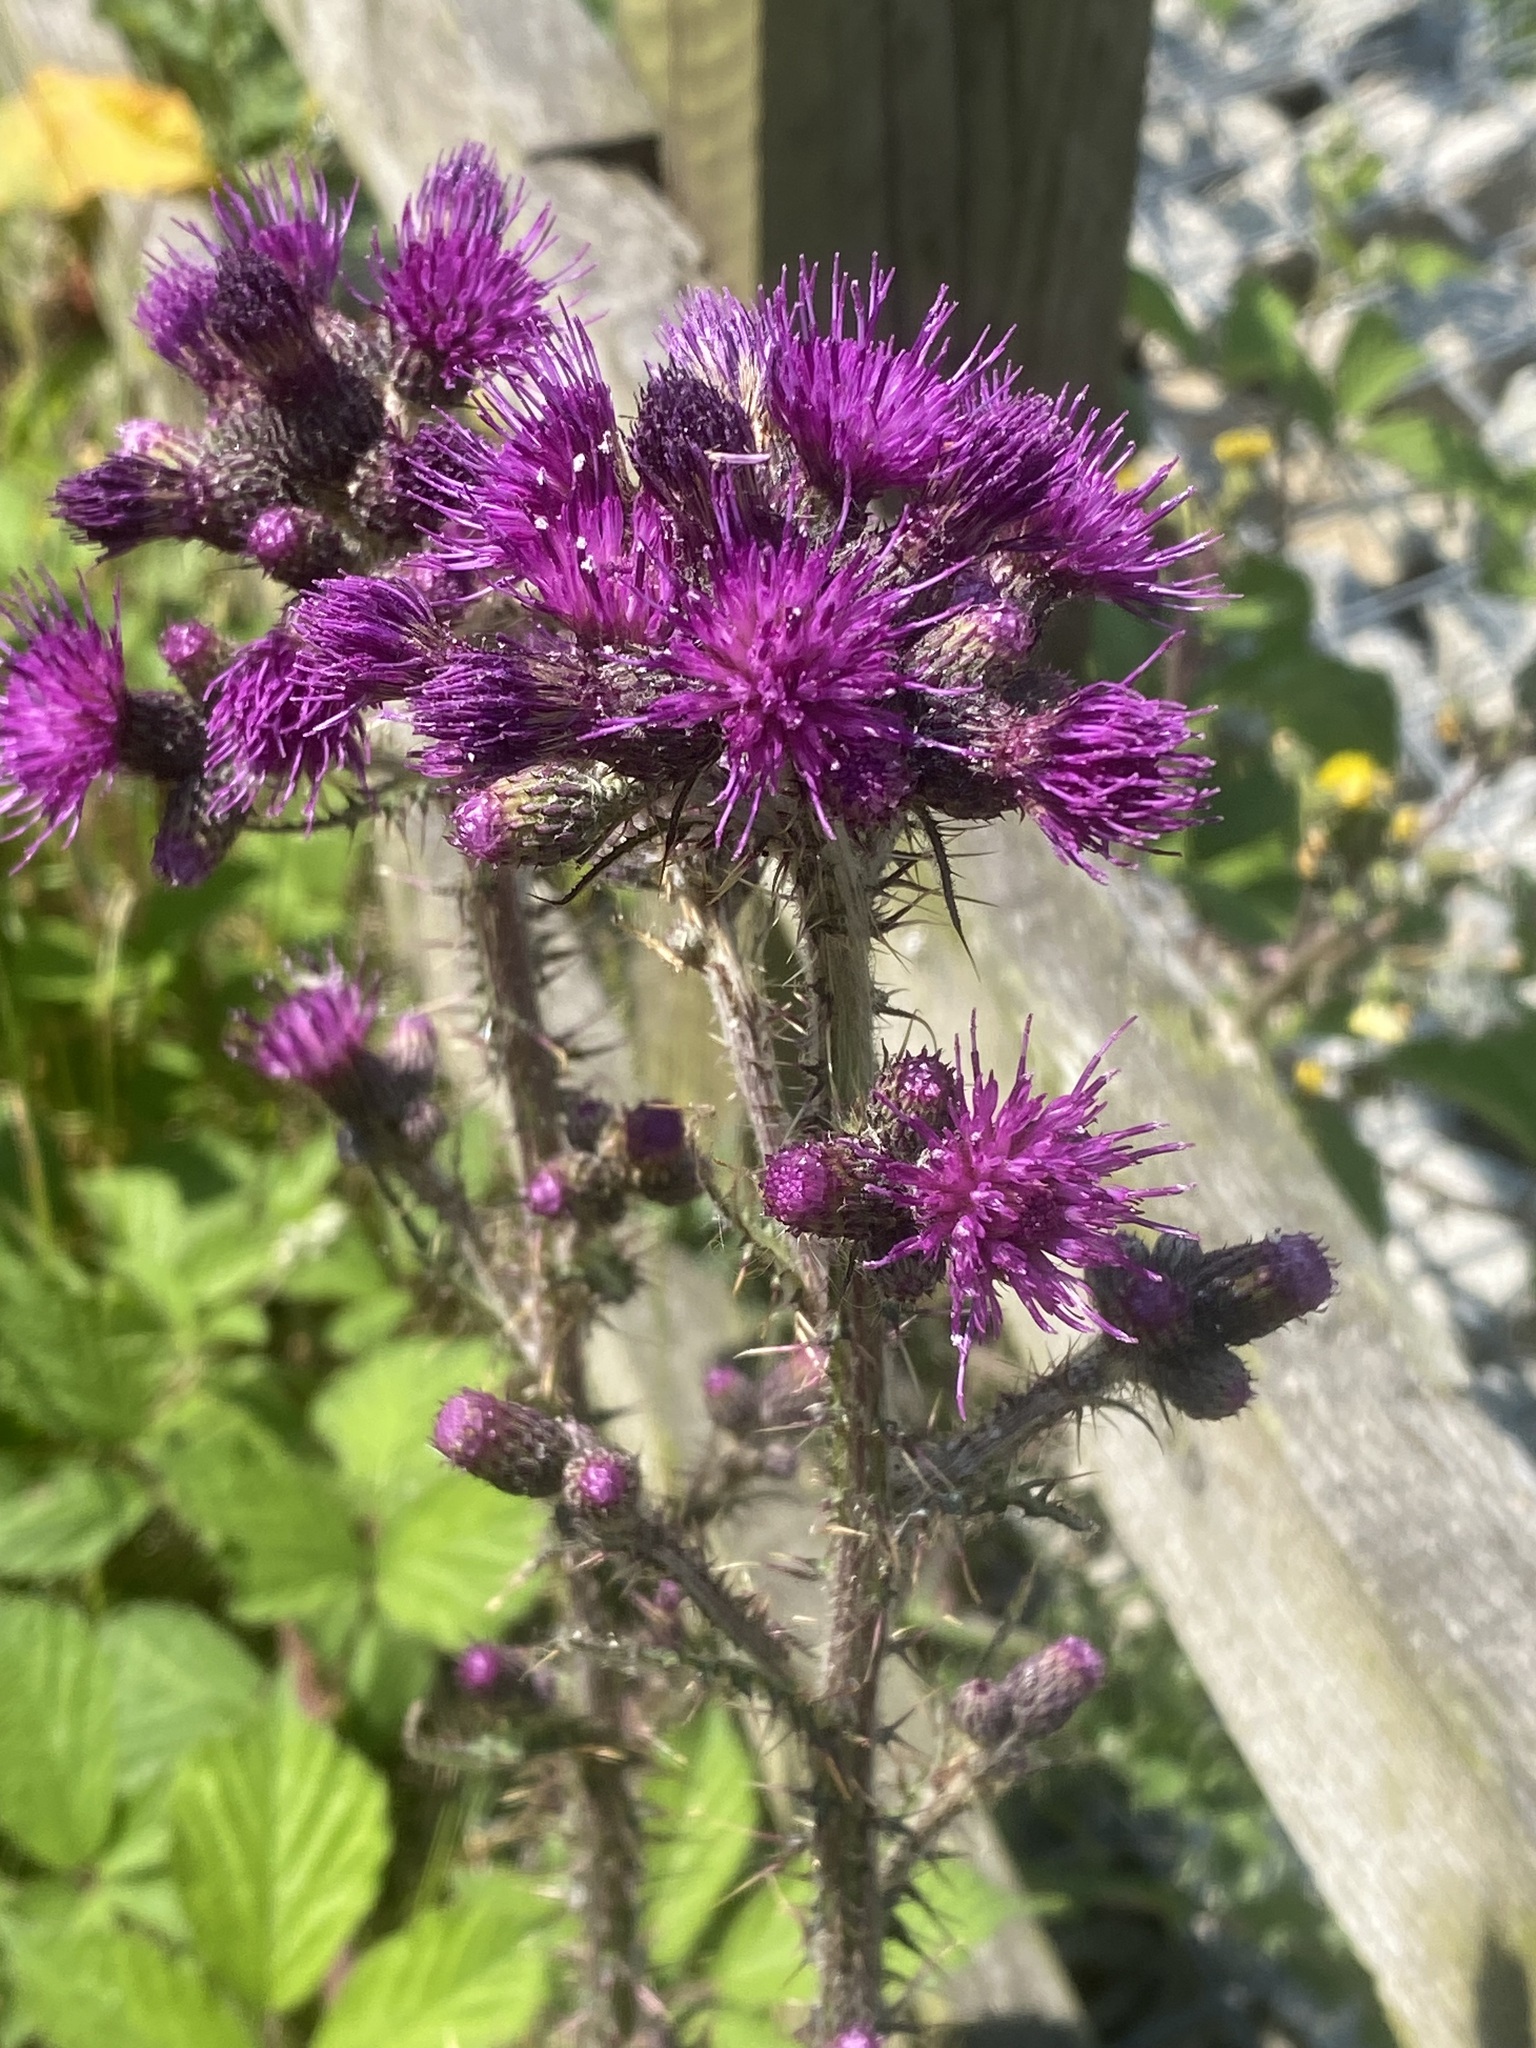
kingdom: Plantae
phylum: Tracheophyta
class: Magnoliopsida
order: Asterales
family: Asteraceae
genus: Cirsium
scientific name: Cirsium palustre
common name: Marsh thistle
